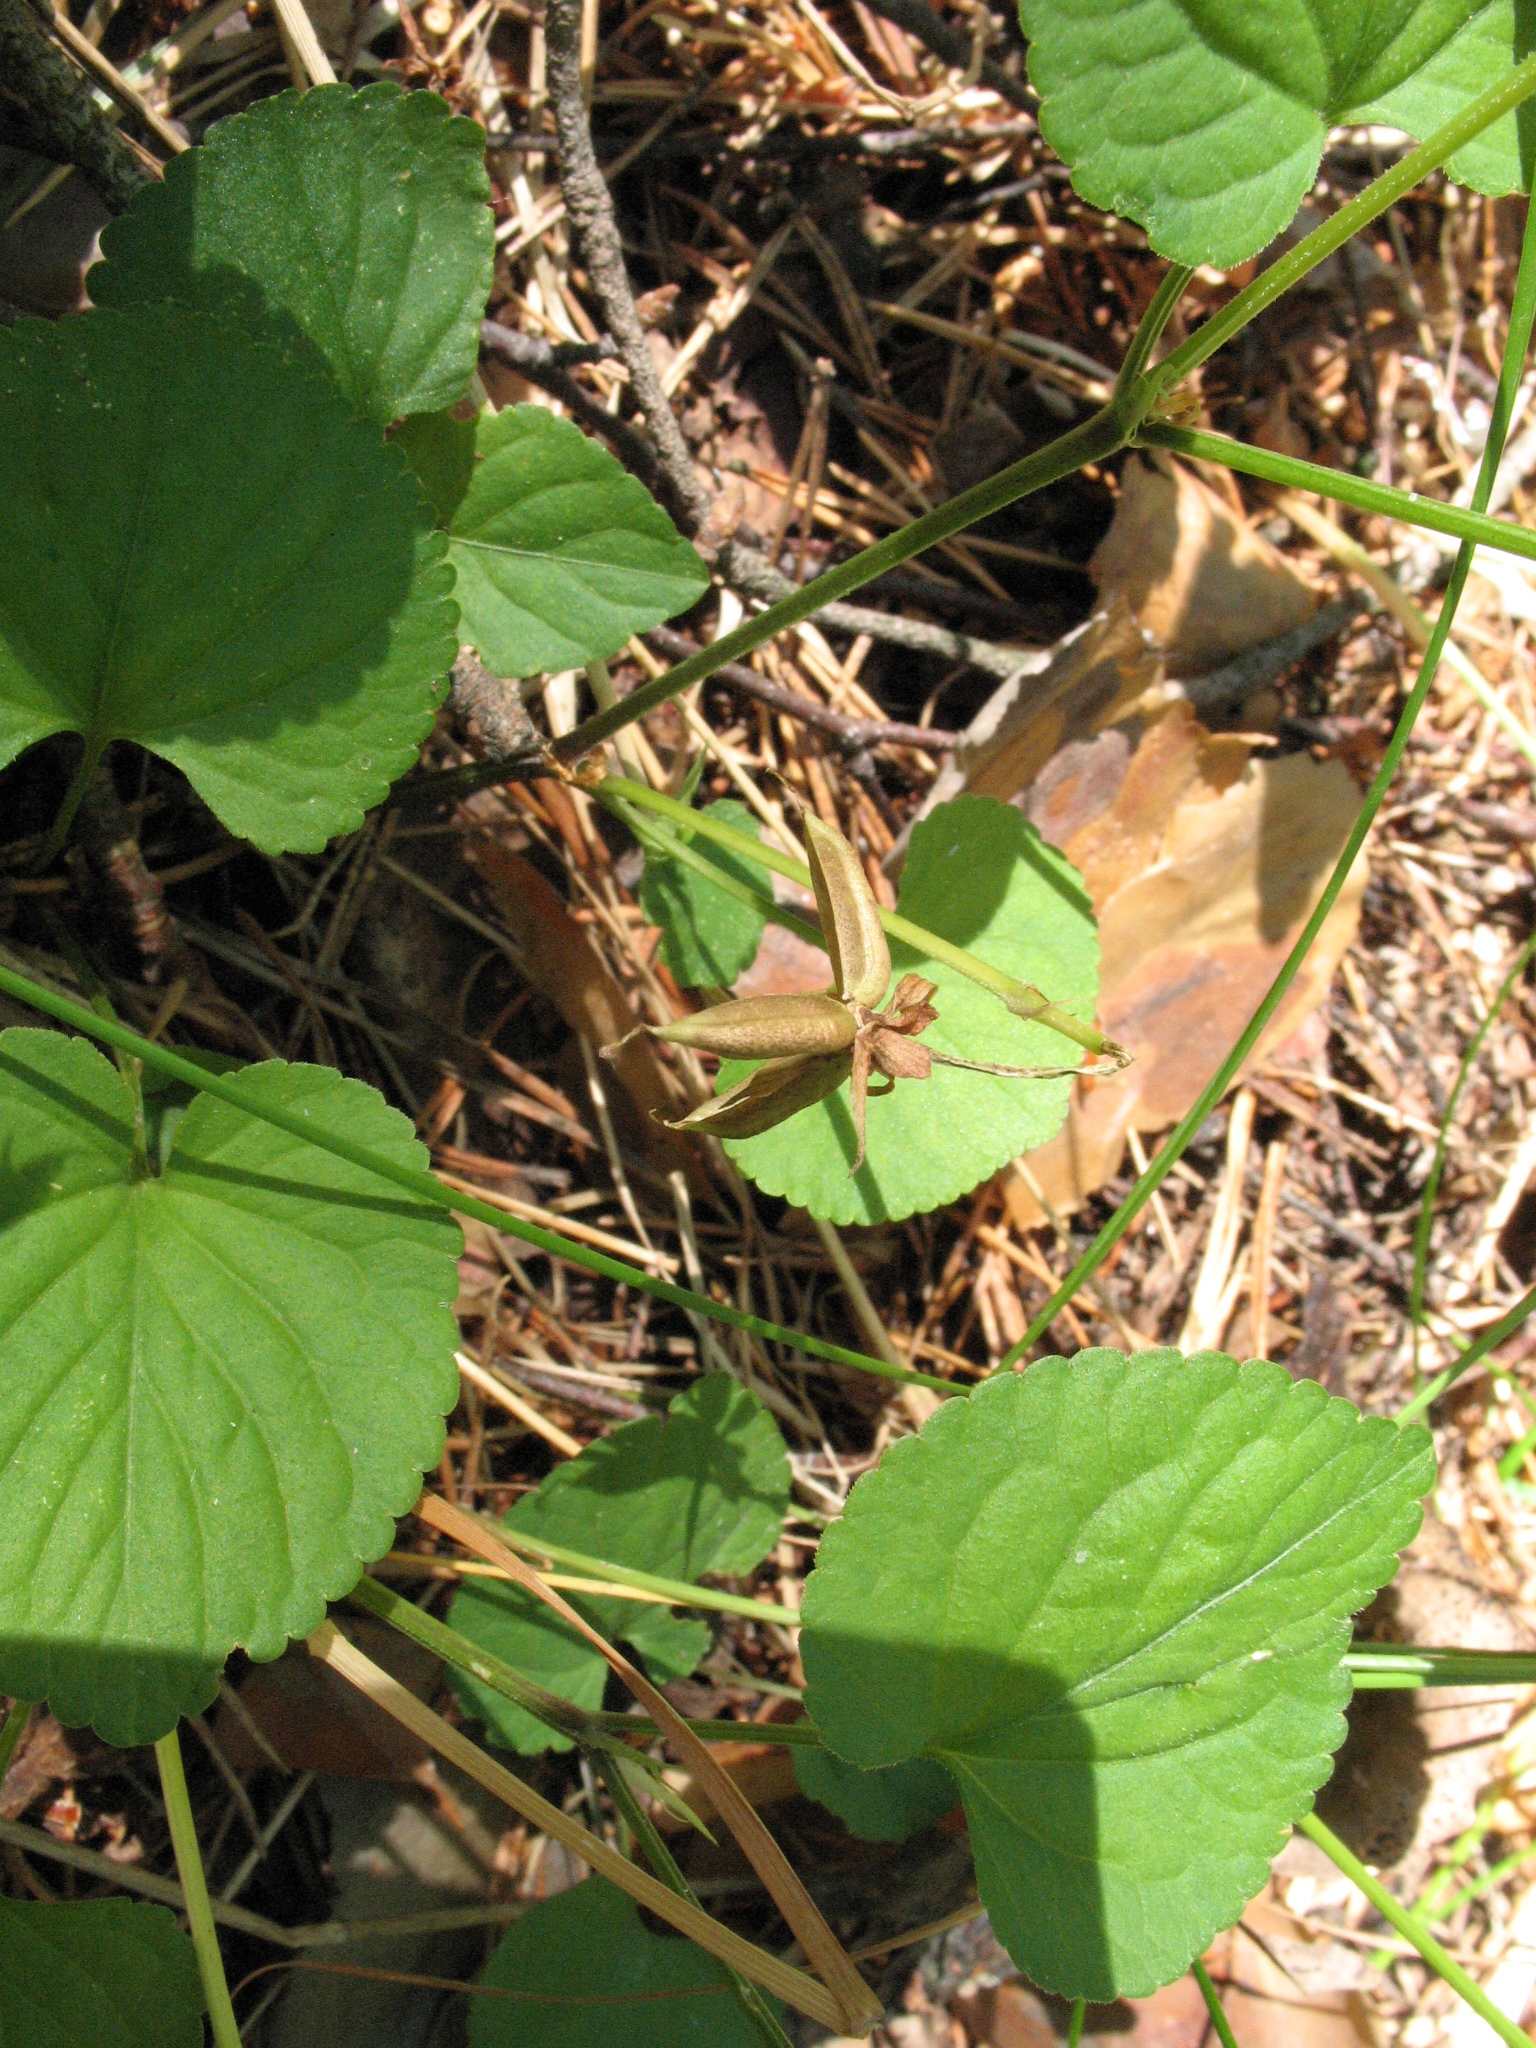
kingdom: Plantae
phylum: Tracheophyta
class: Magnoliopsida
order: Malpighiales
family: Violaceae
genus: Viola
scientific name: Viola riviniana
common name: Common dog-violet
